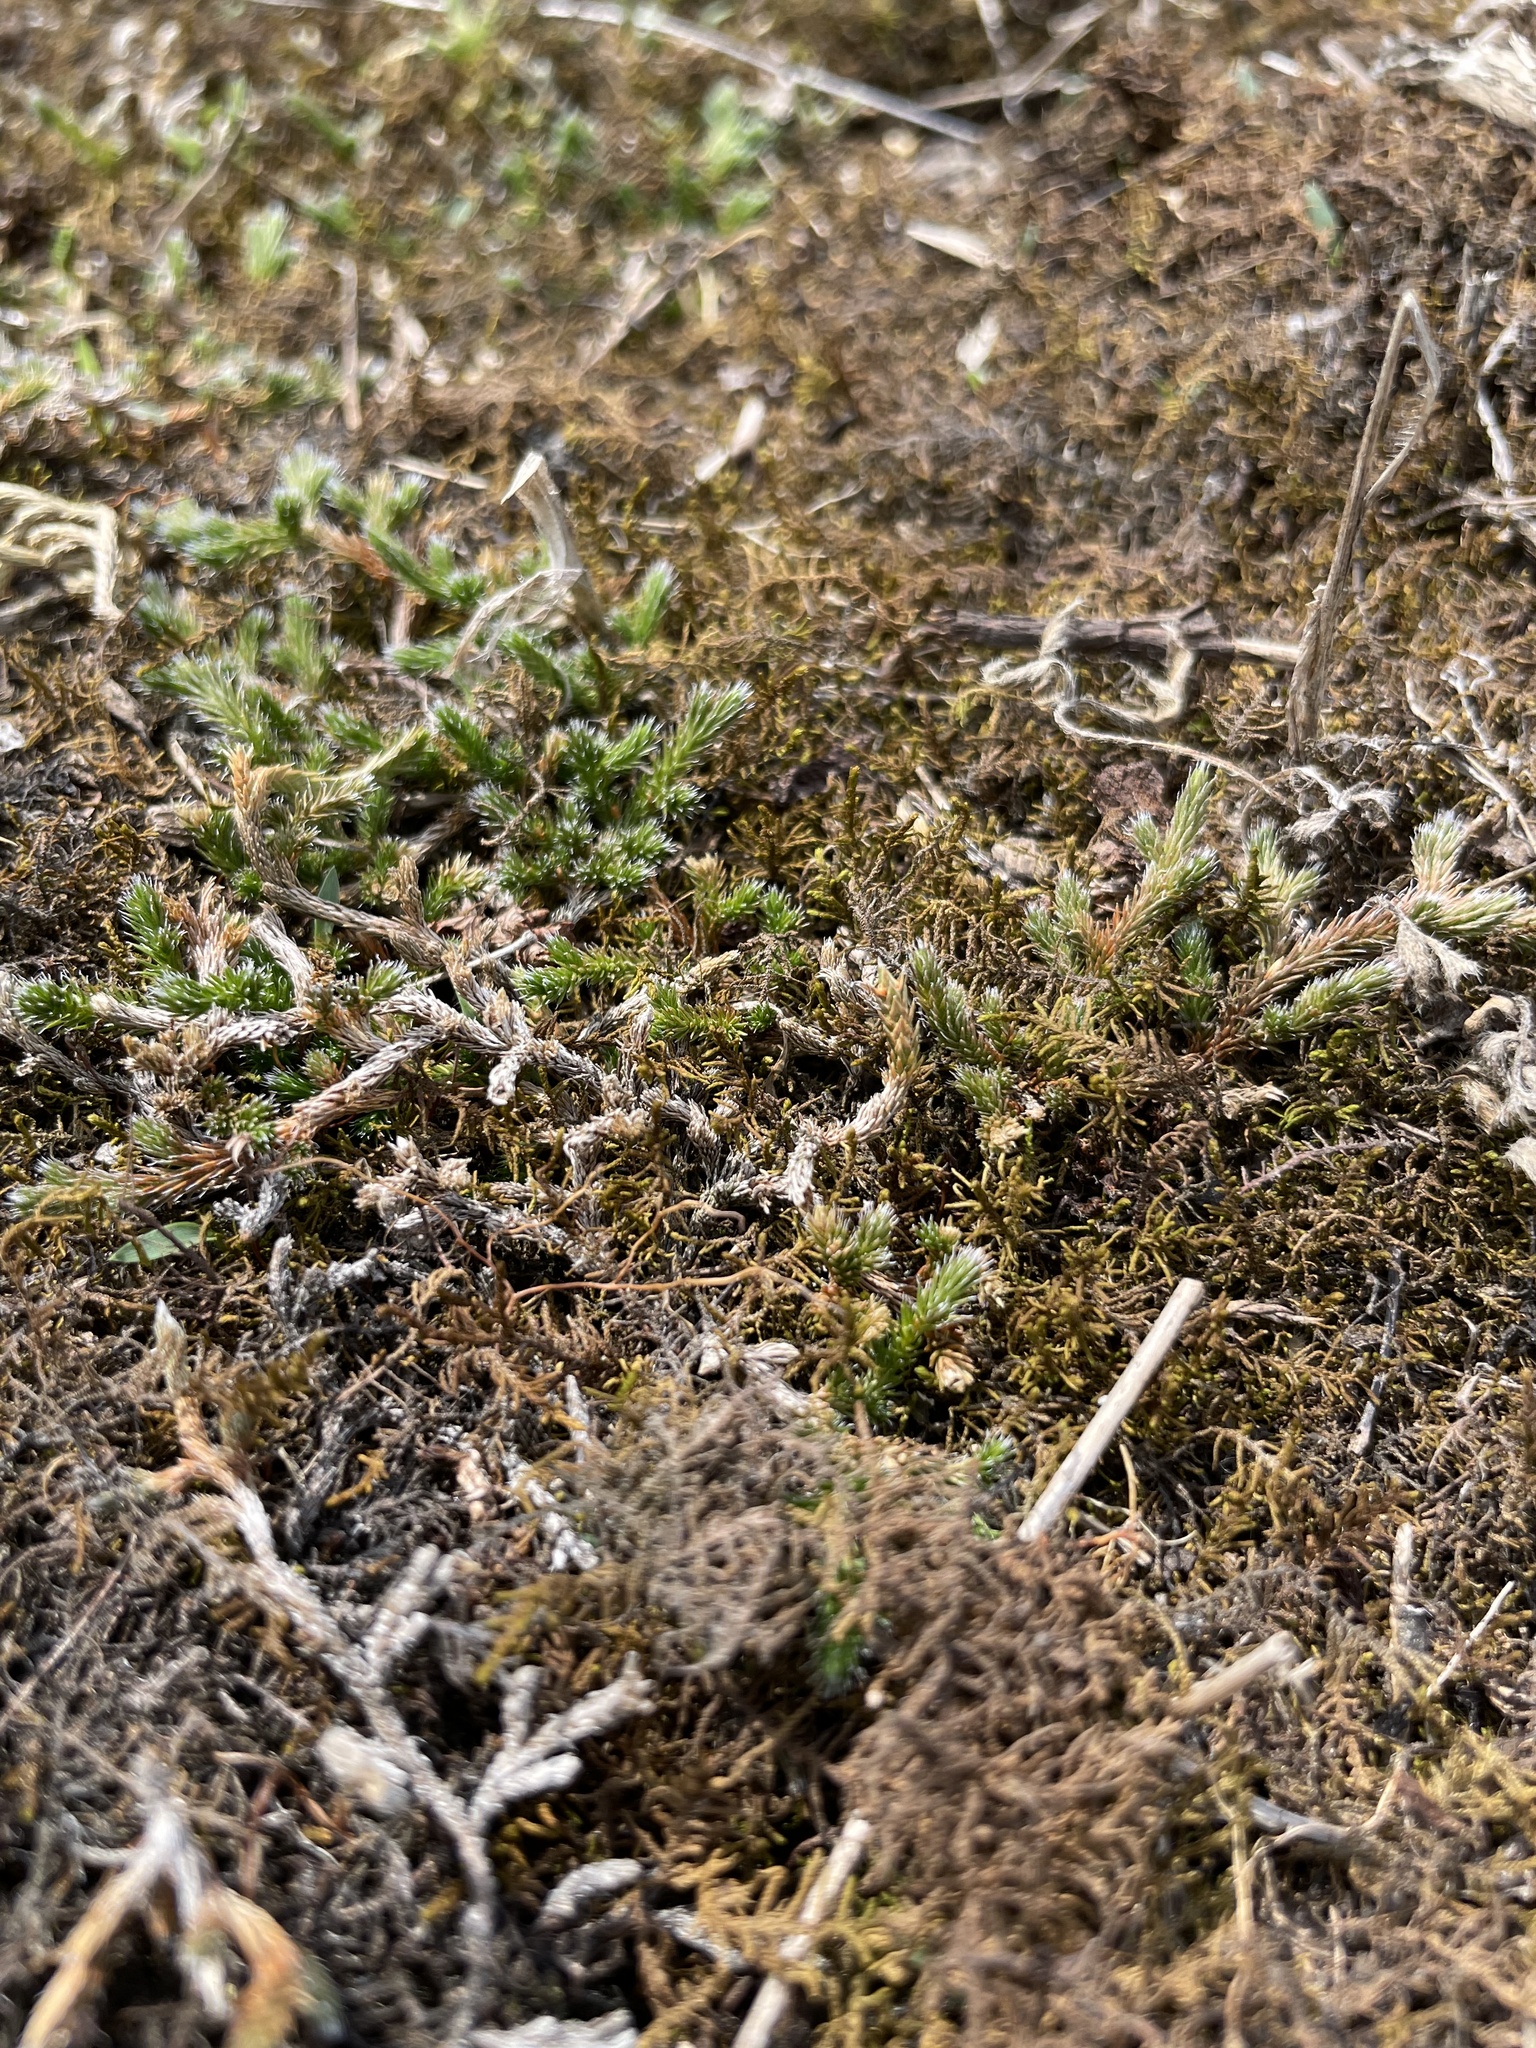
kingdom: Plantae
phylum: Tracheophyta
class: Lycopodiopsida
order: Selaginellales
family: Selaginellaceae
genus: Selaginella
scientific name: Selaginella rupestris
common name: Dwarf spikemoss
